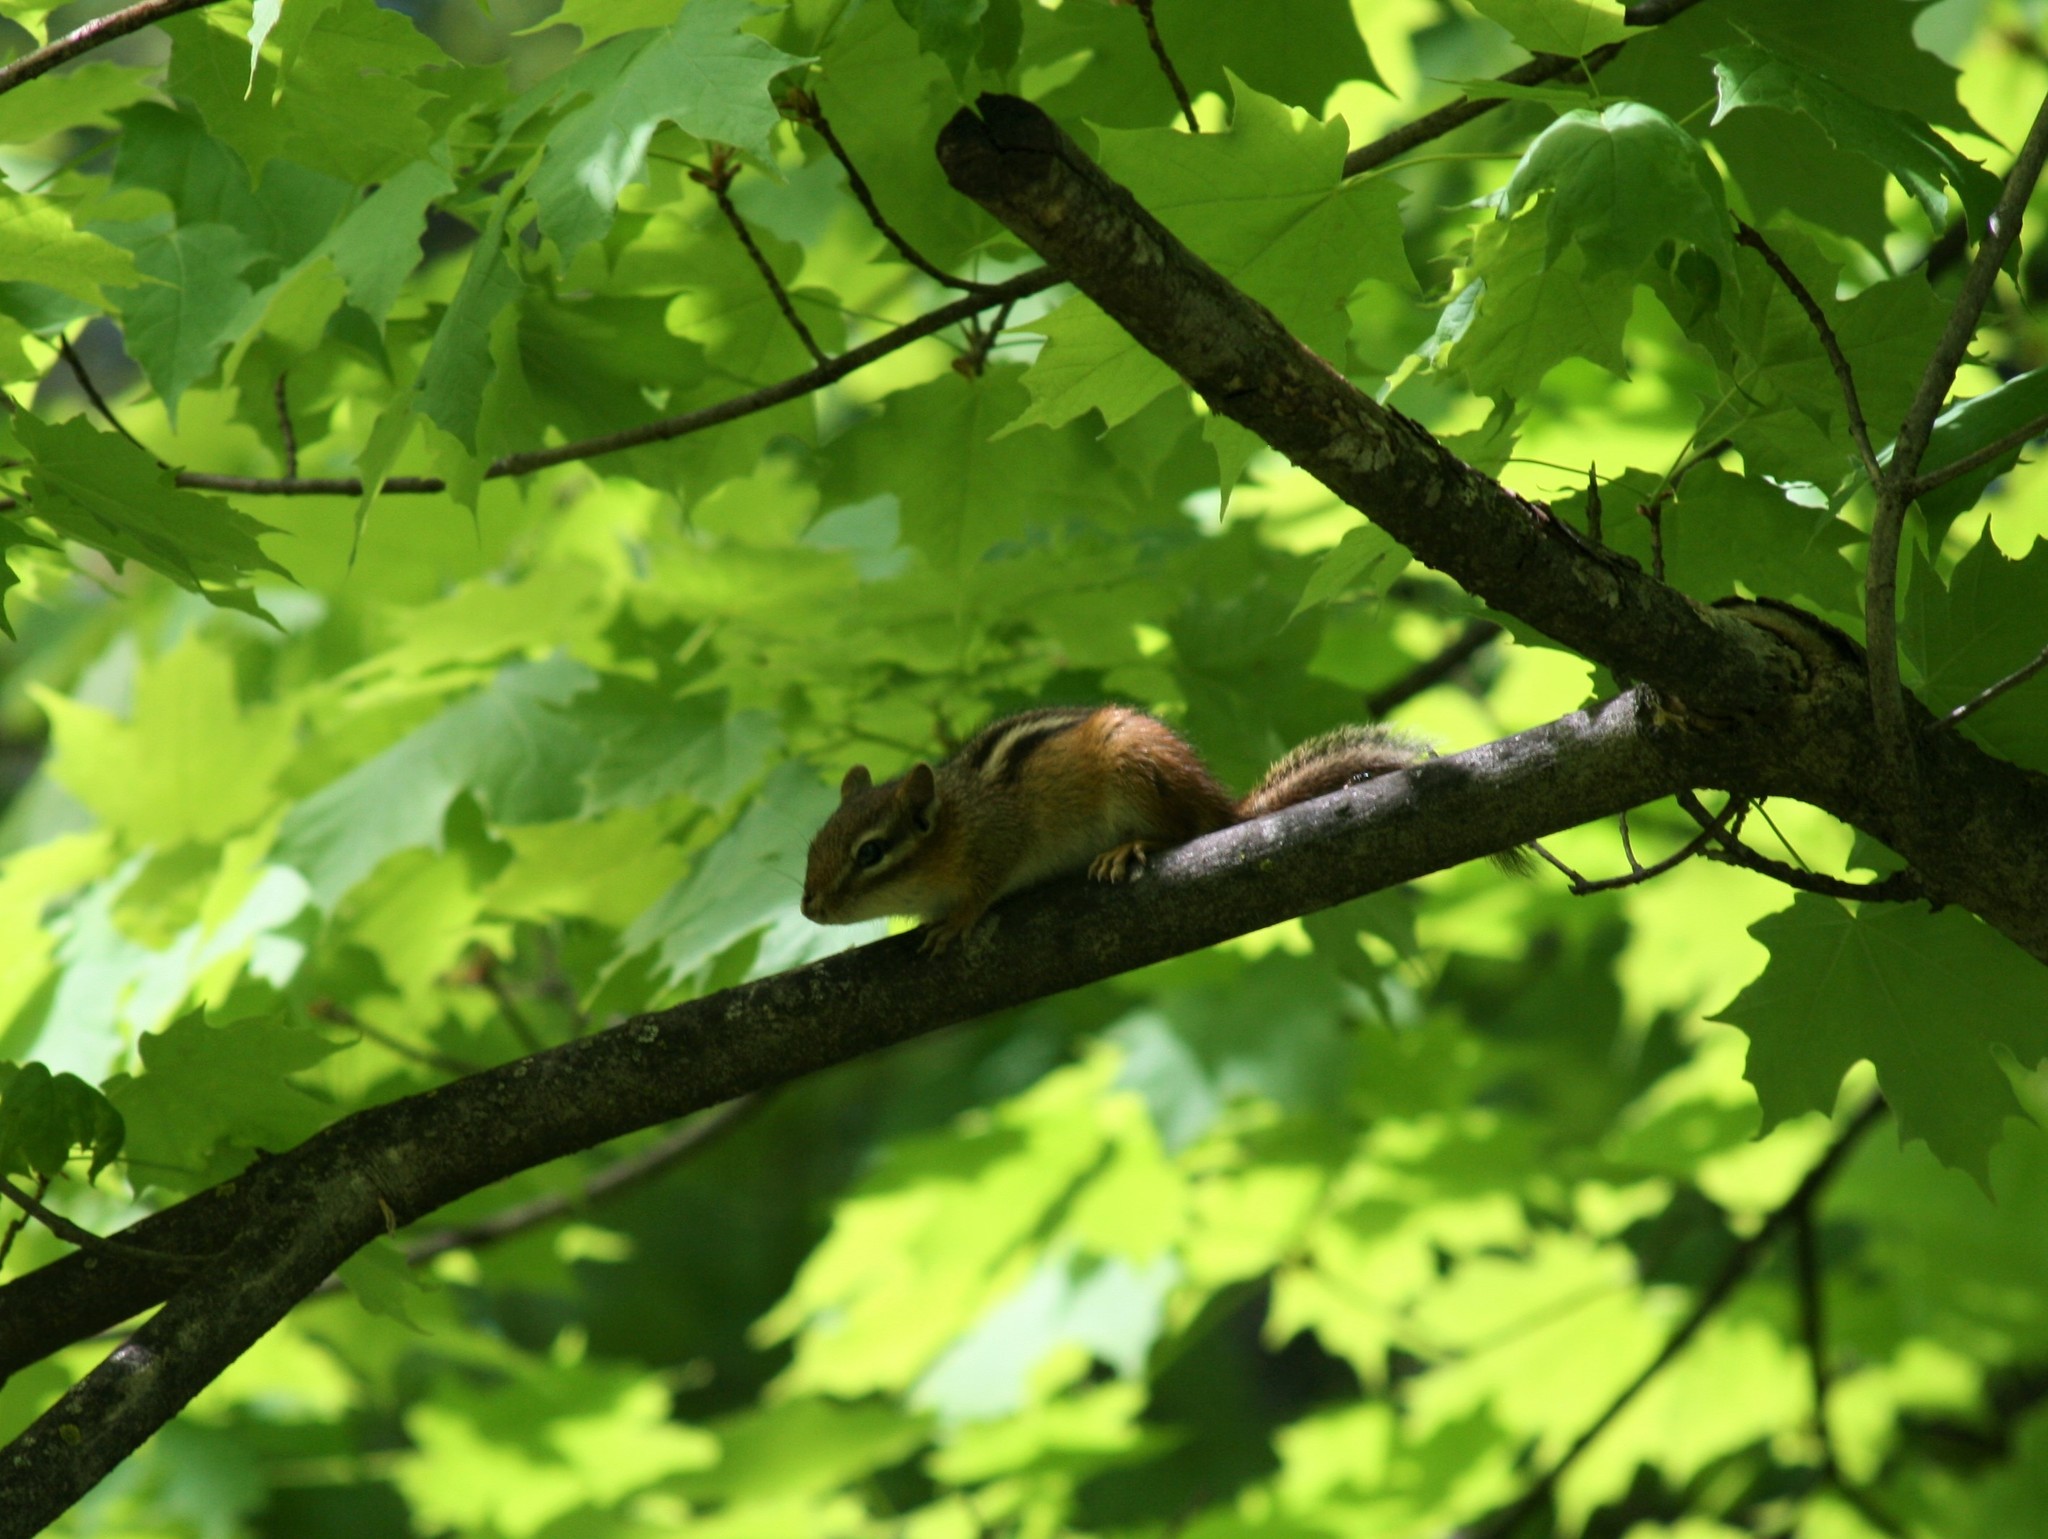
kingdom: Animalia
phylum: Chordata
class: Mammalia
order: Rodentia
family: Sciuridae
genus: Tamias
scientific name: Tamias striatus
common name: Eastern chipmunk
